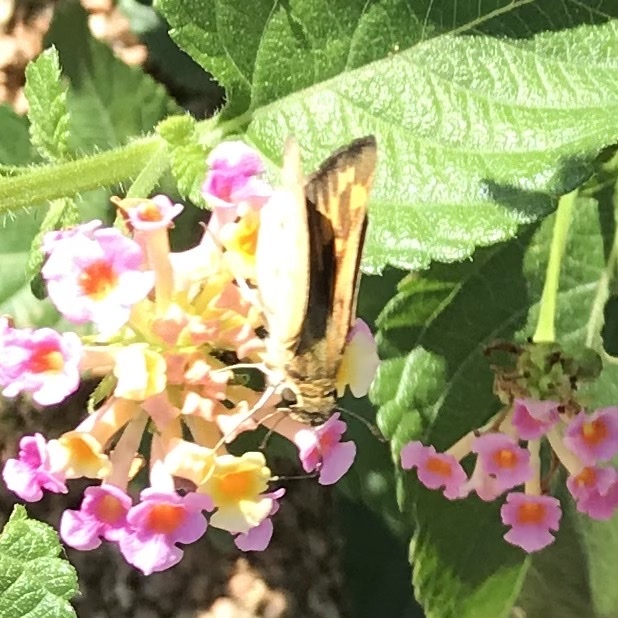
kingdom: Animalia
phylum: Arthropoda
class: Insecta
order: Lepidoptera
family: Hesperiidae
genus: Hylephila
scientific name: Hylephila phyleus
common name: Fiery skipper
